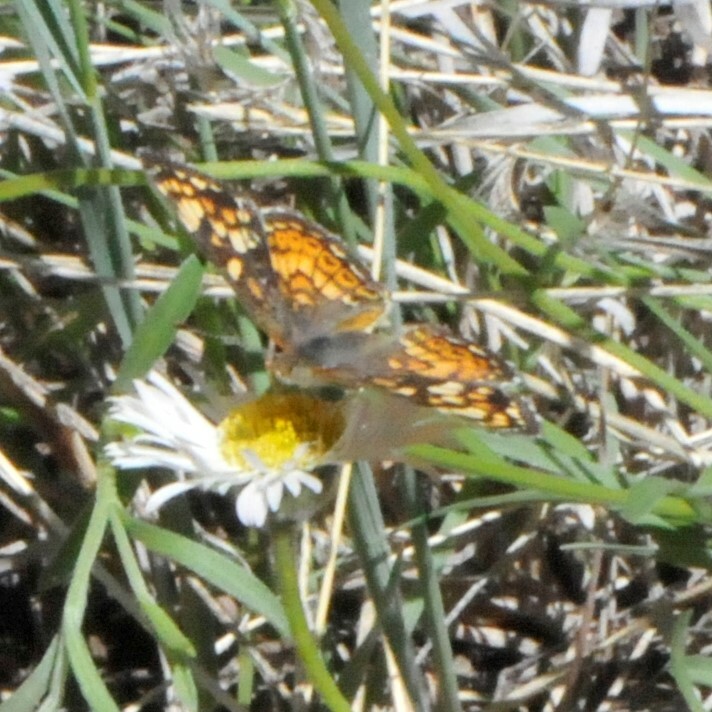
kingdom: Animalia
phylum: Arthropoda
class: Insecta
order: Lepidoptera
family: Nymphalidae
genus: Phyciodes
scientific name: Phyciodes tharos
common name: Pearl crescent
